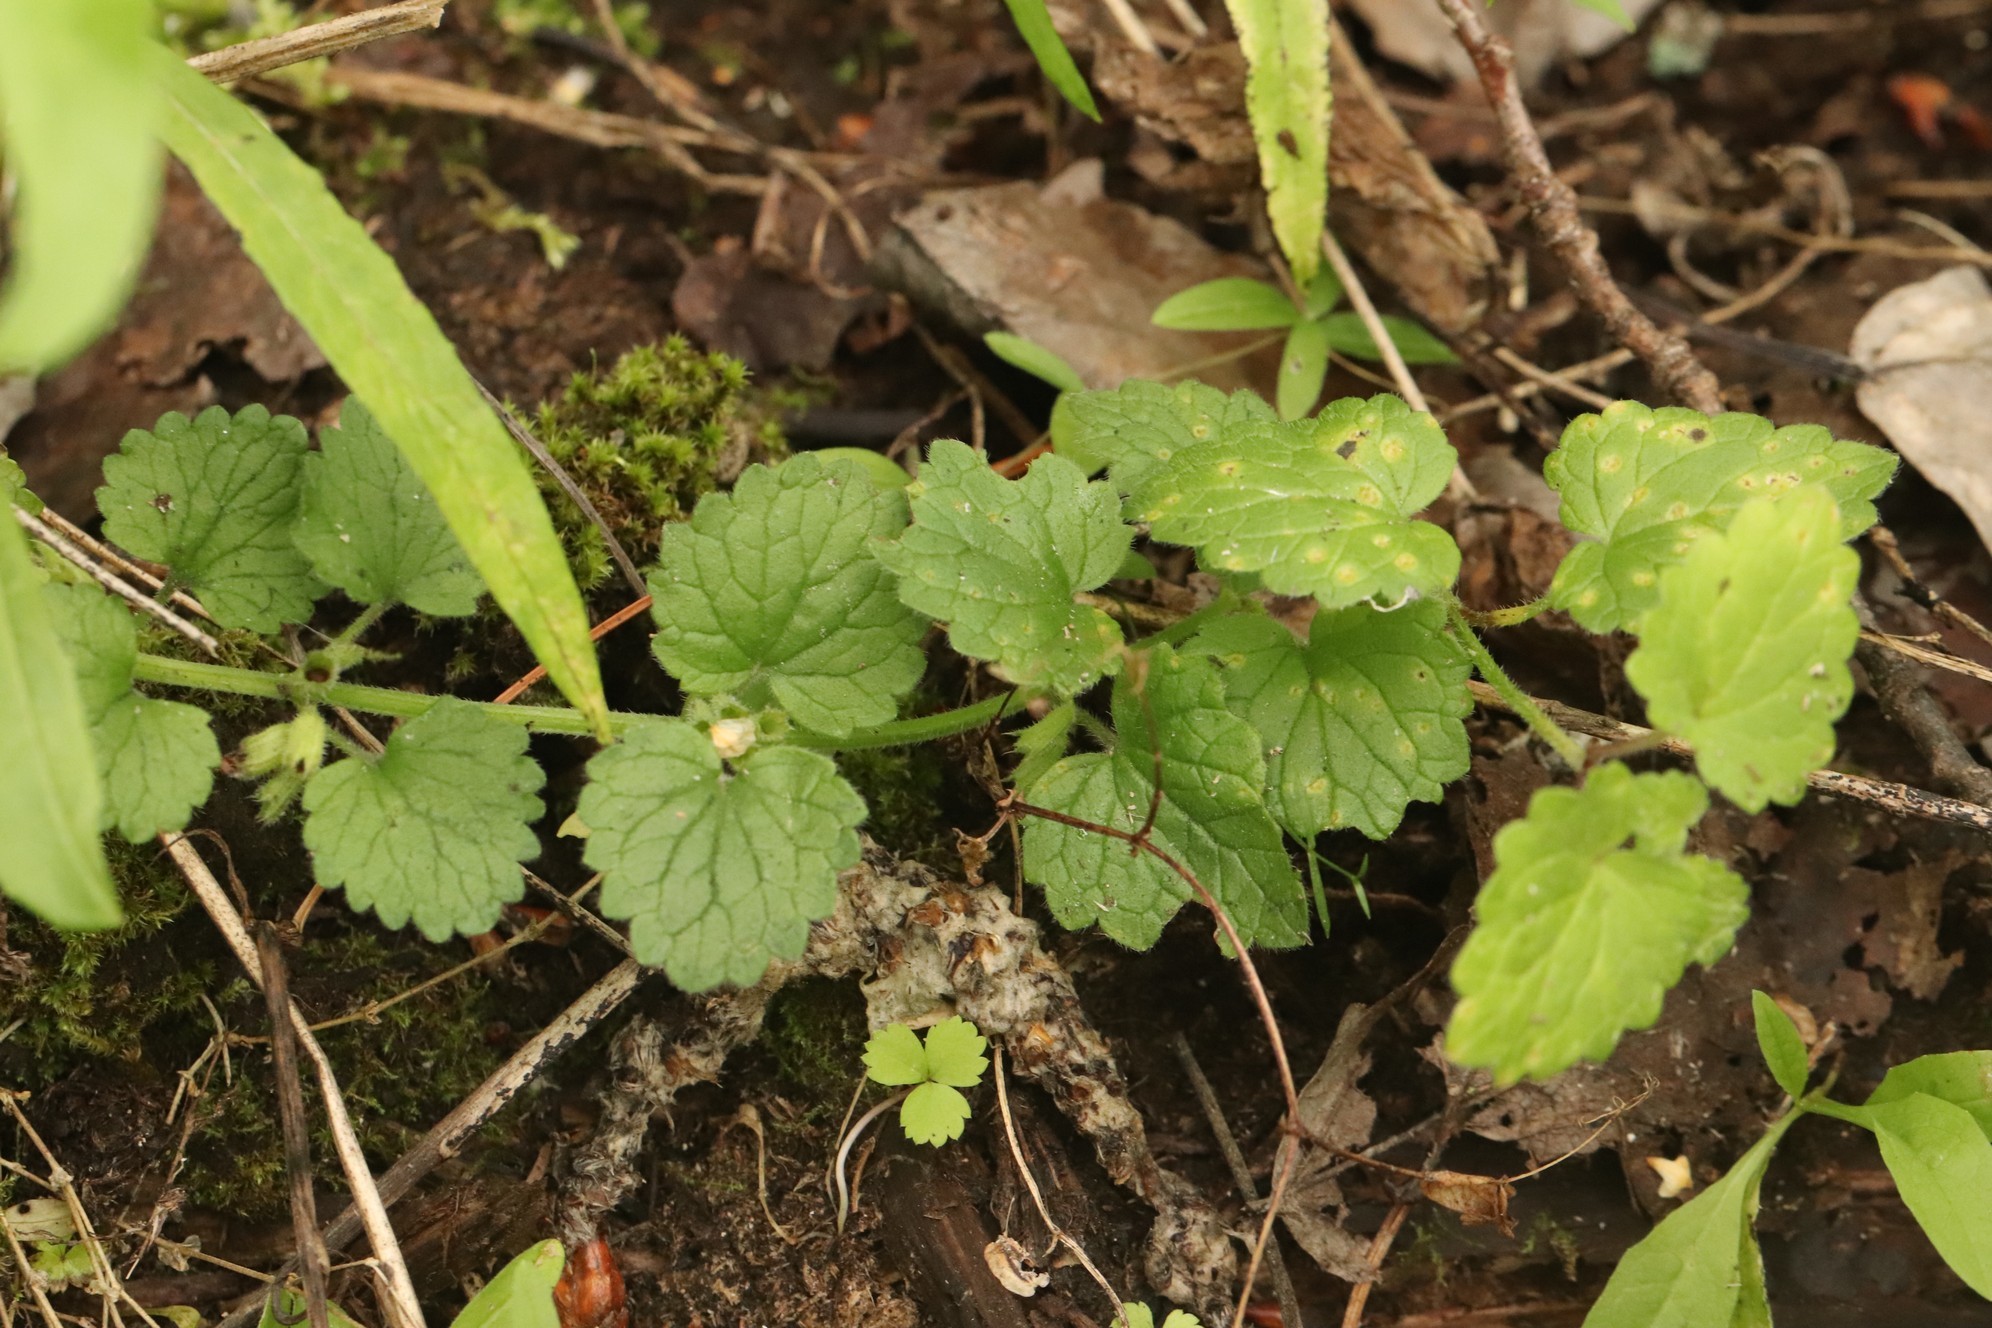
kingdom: Plantae
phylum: Tracheophyta
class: Magnoliopsida
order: Lamiales
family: Lamiaceae
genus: Glechoma
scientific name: Glechoma hederacea
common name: Ground ivy
